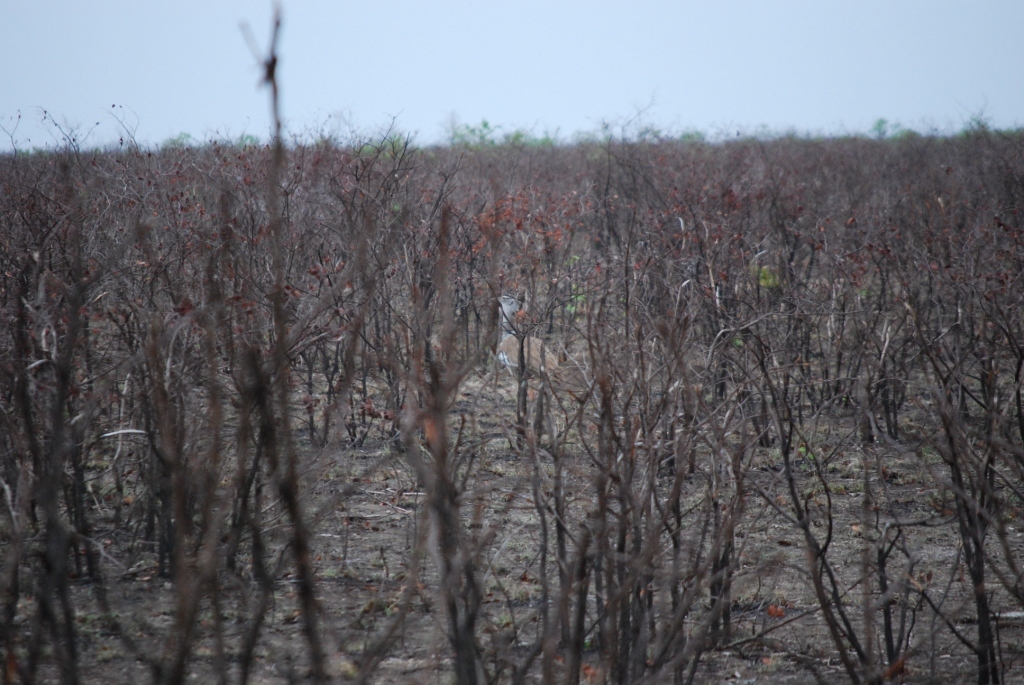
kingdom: Animalia
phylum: Chordata
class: Aves
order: Otidiformes
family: Otididae
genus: Ardeotis
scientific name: Ardeotis kori
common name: Kori bustard
